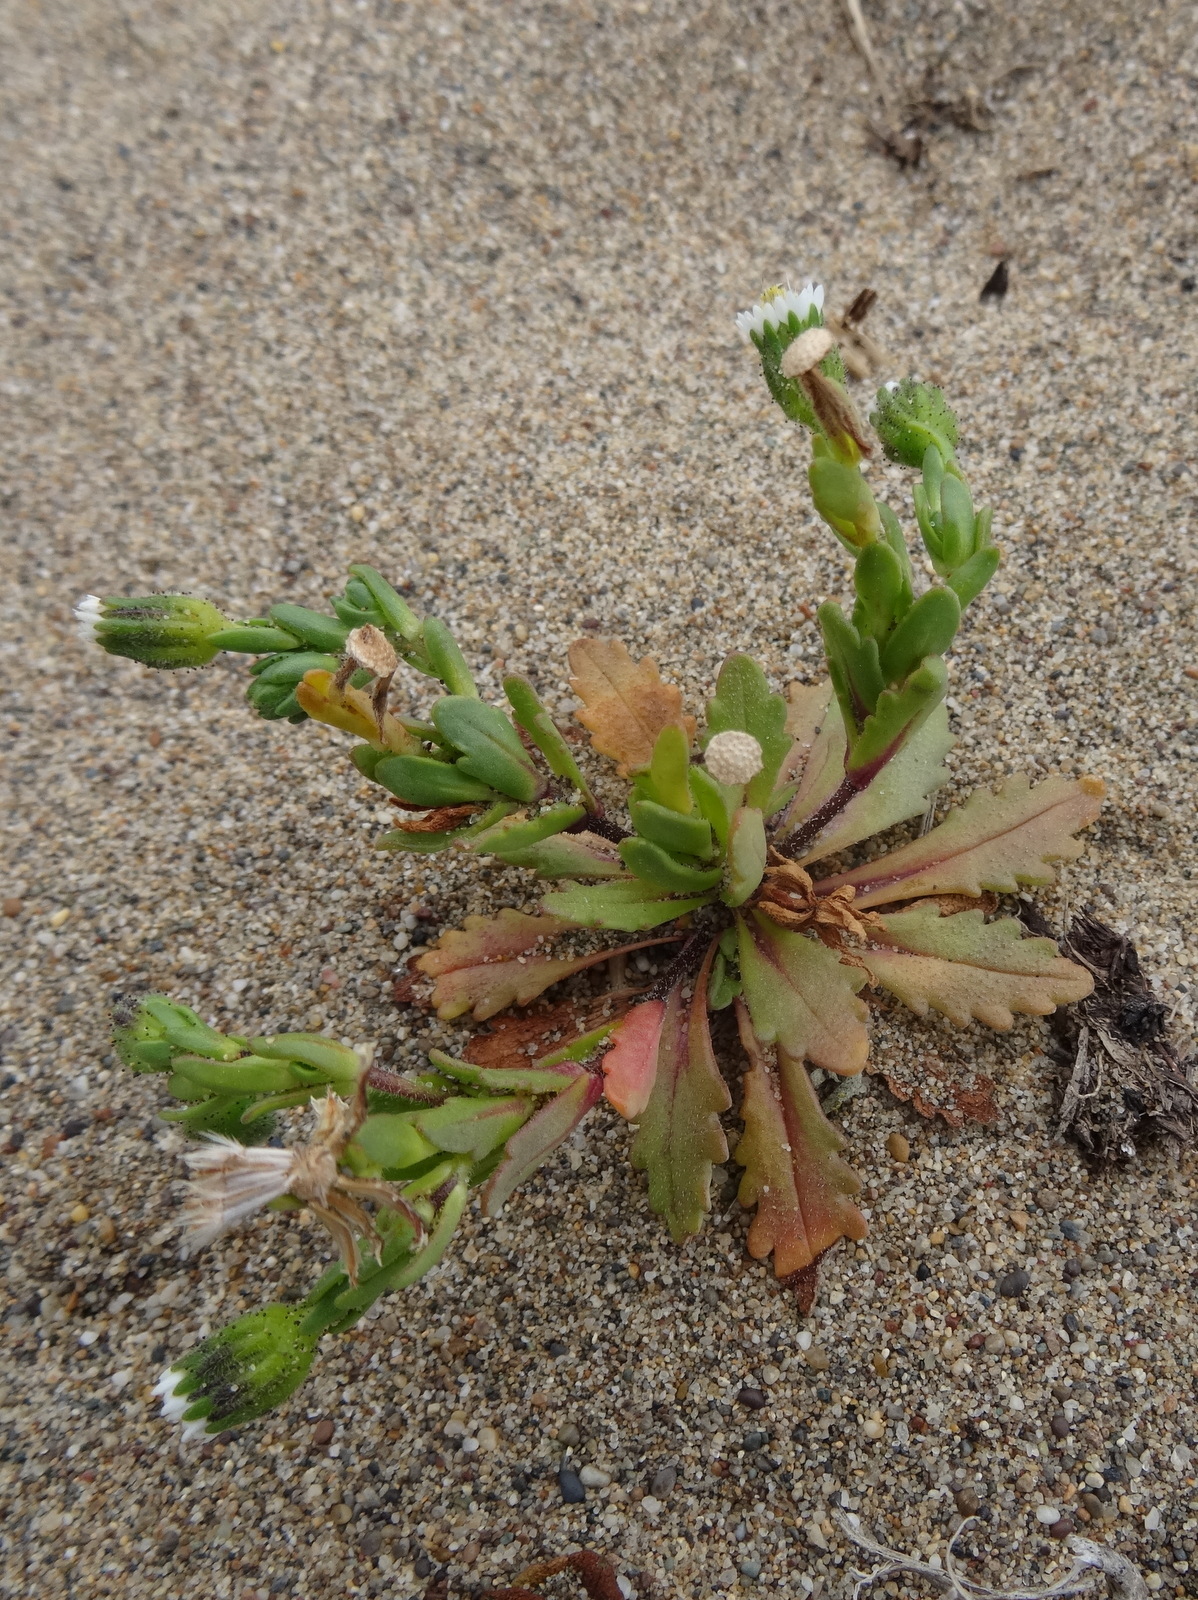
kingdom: Plantae
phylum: Tracheophyta
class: Magnoliopsida
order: Asterales
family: Asteraceae
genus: Layia
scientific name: Layia carnosa
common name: Beach layia
